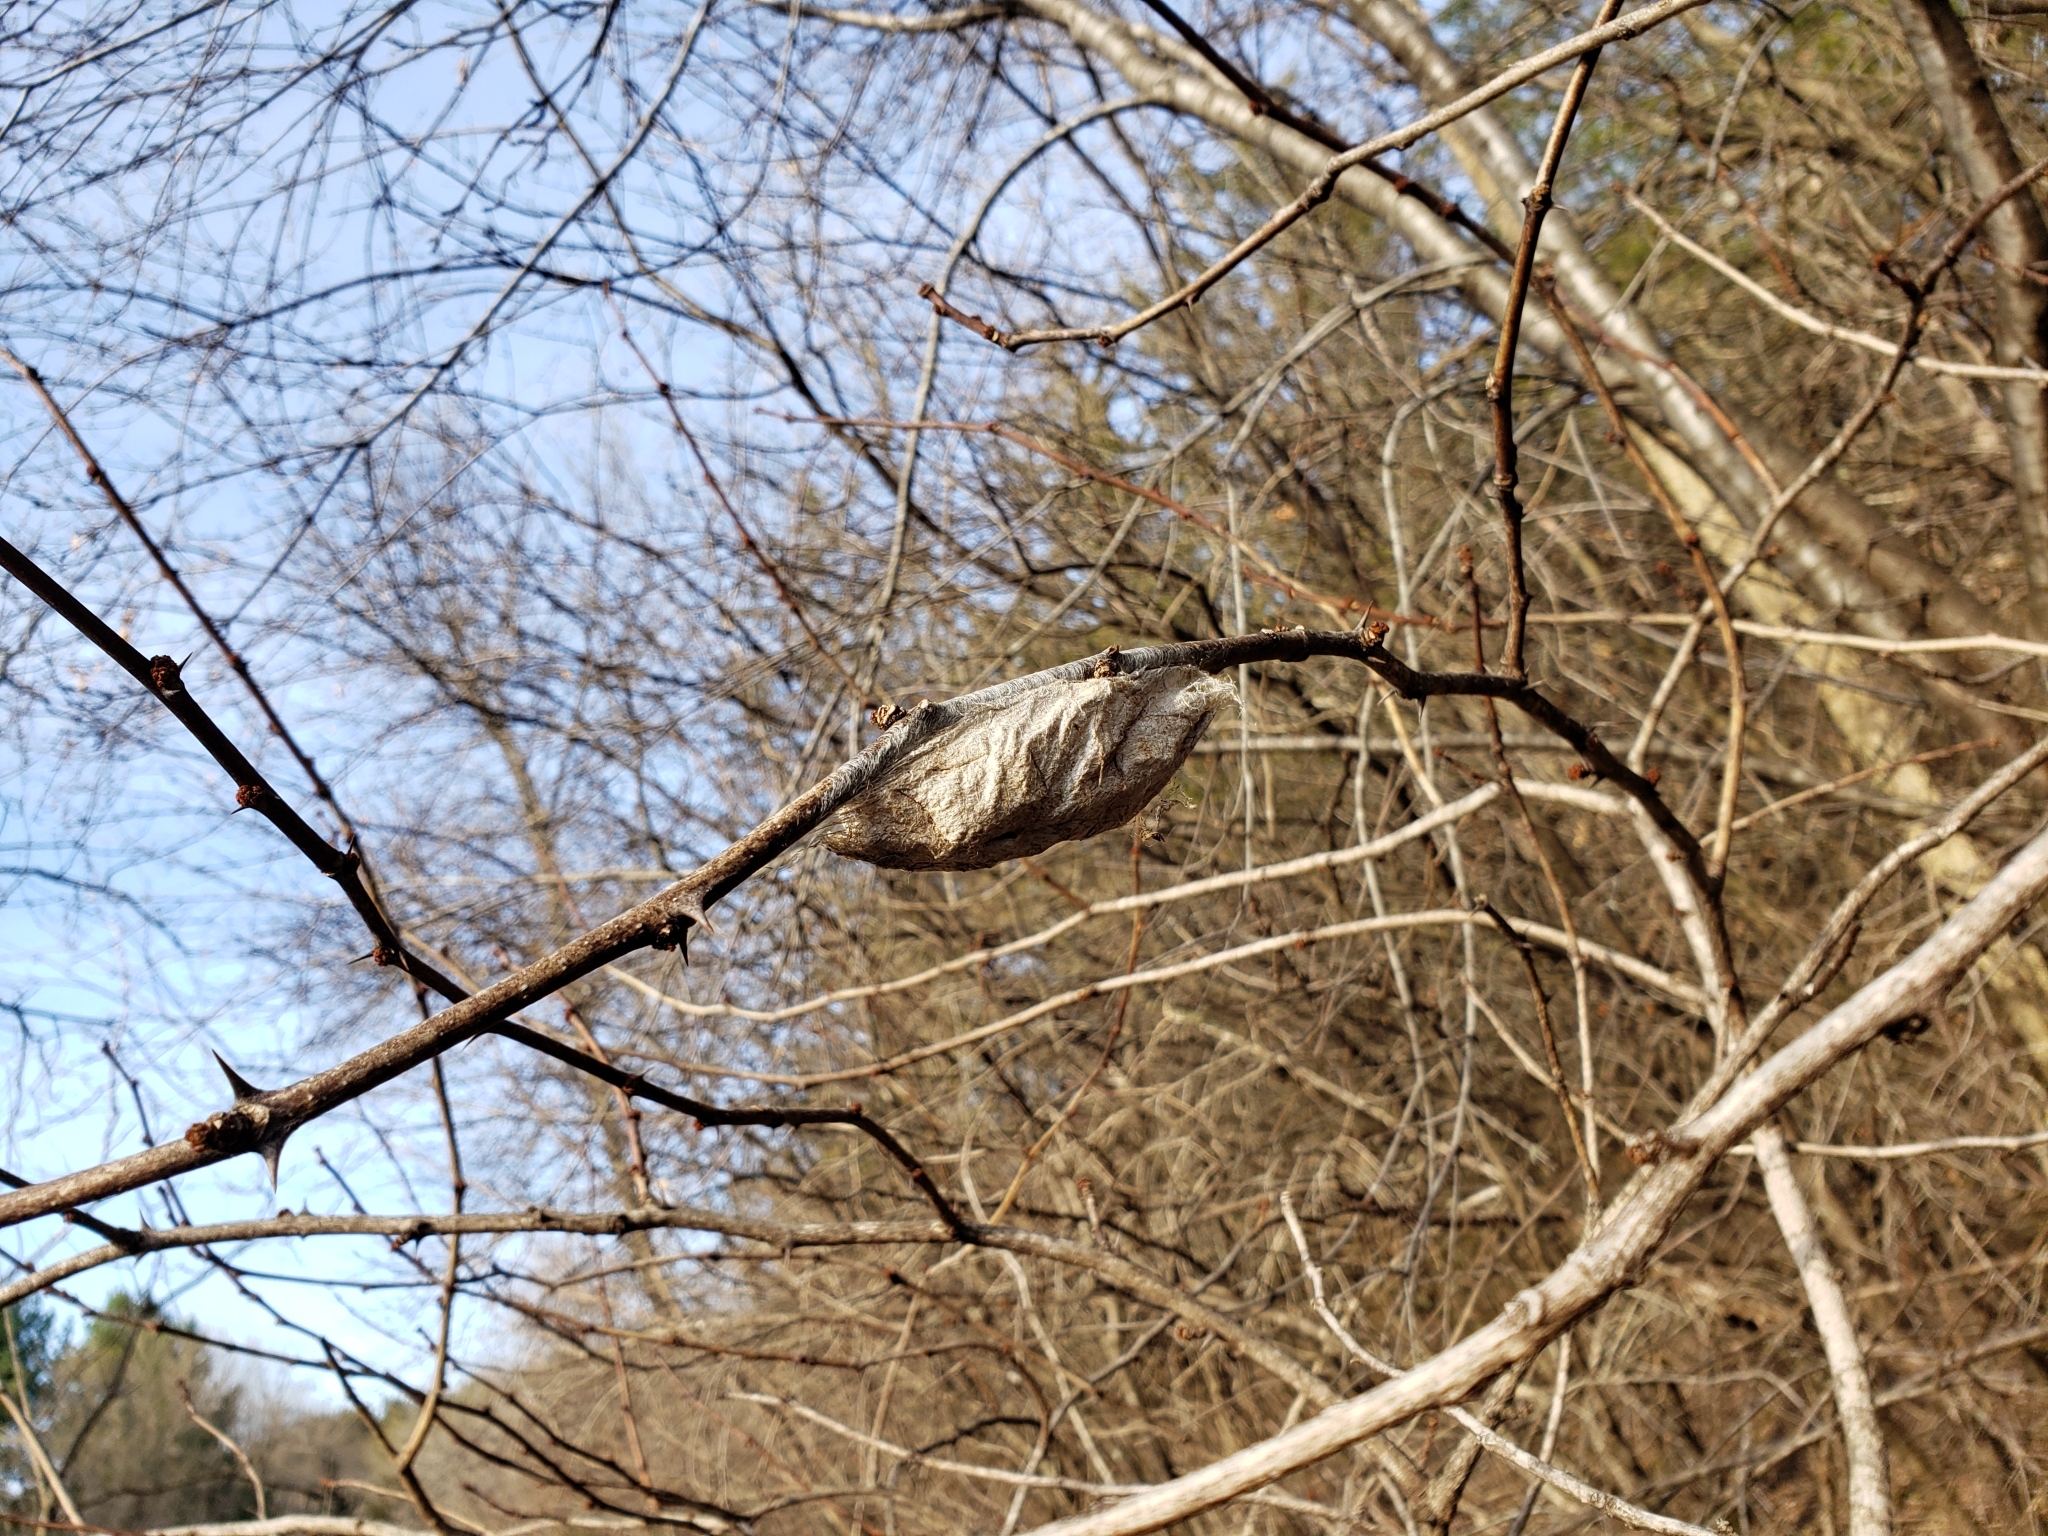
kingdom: Animalia
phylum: Arthropoda
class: Insecta
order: Lepidoptera
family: Saturniidae
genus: Hyalophora
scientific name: Hyalophora cecropia
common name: Cecropia silkmoth
